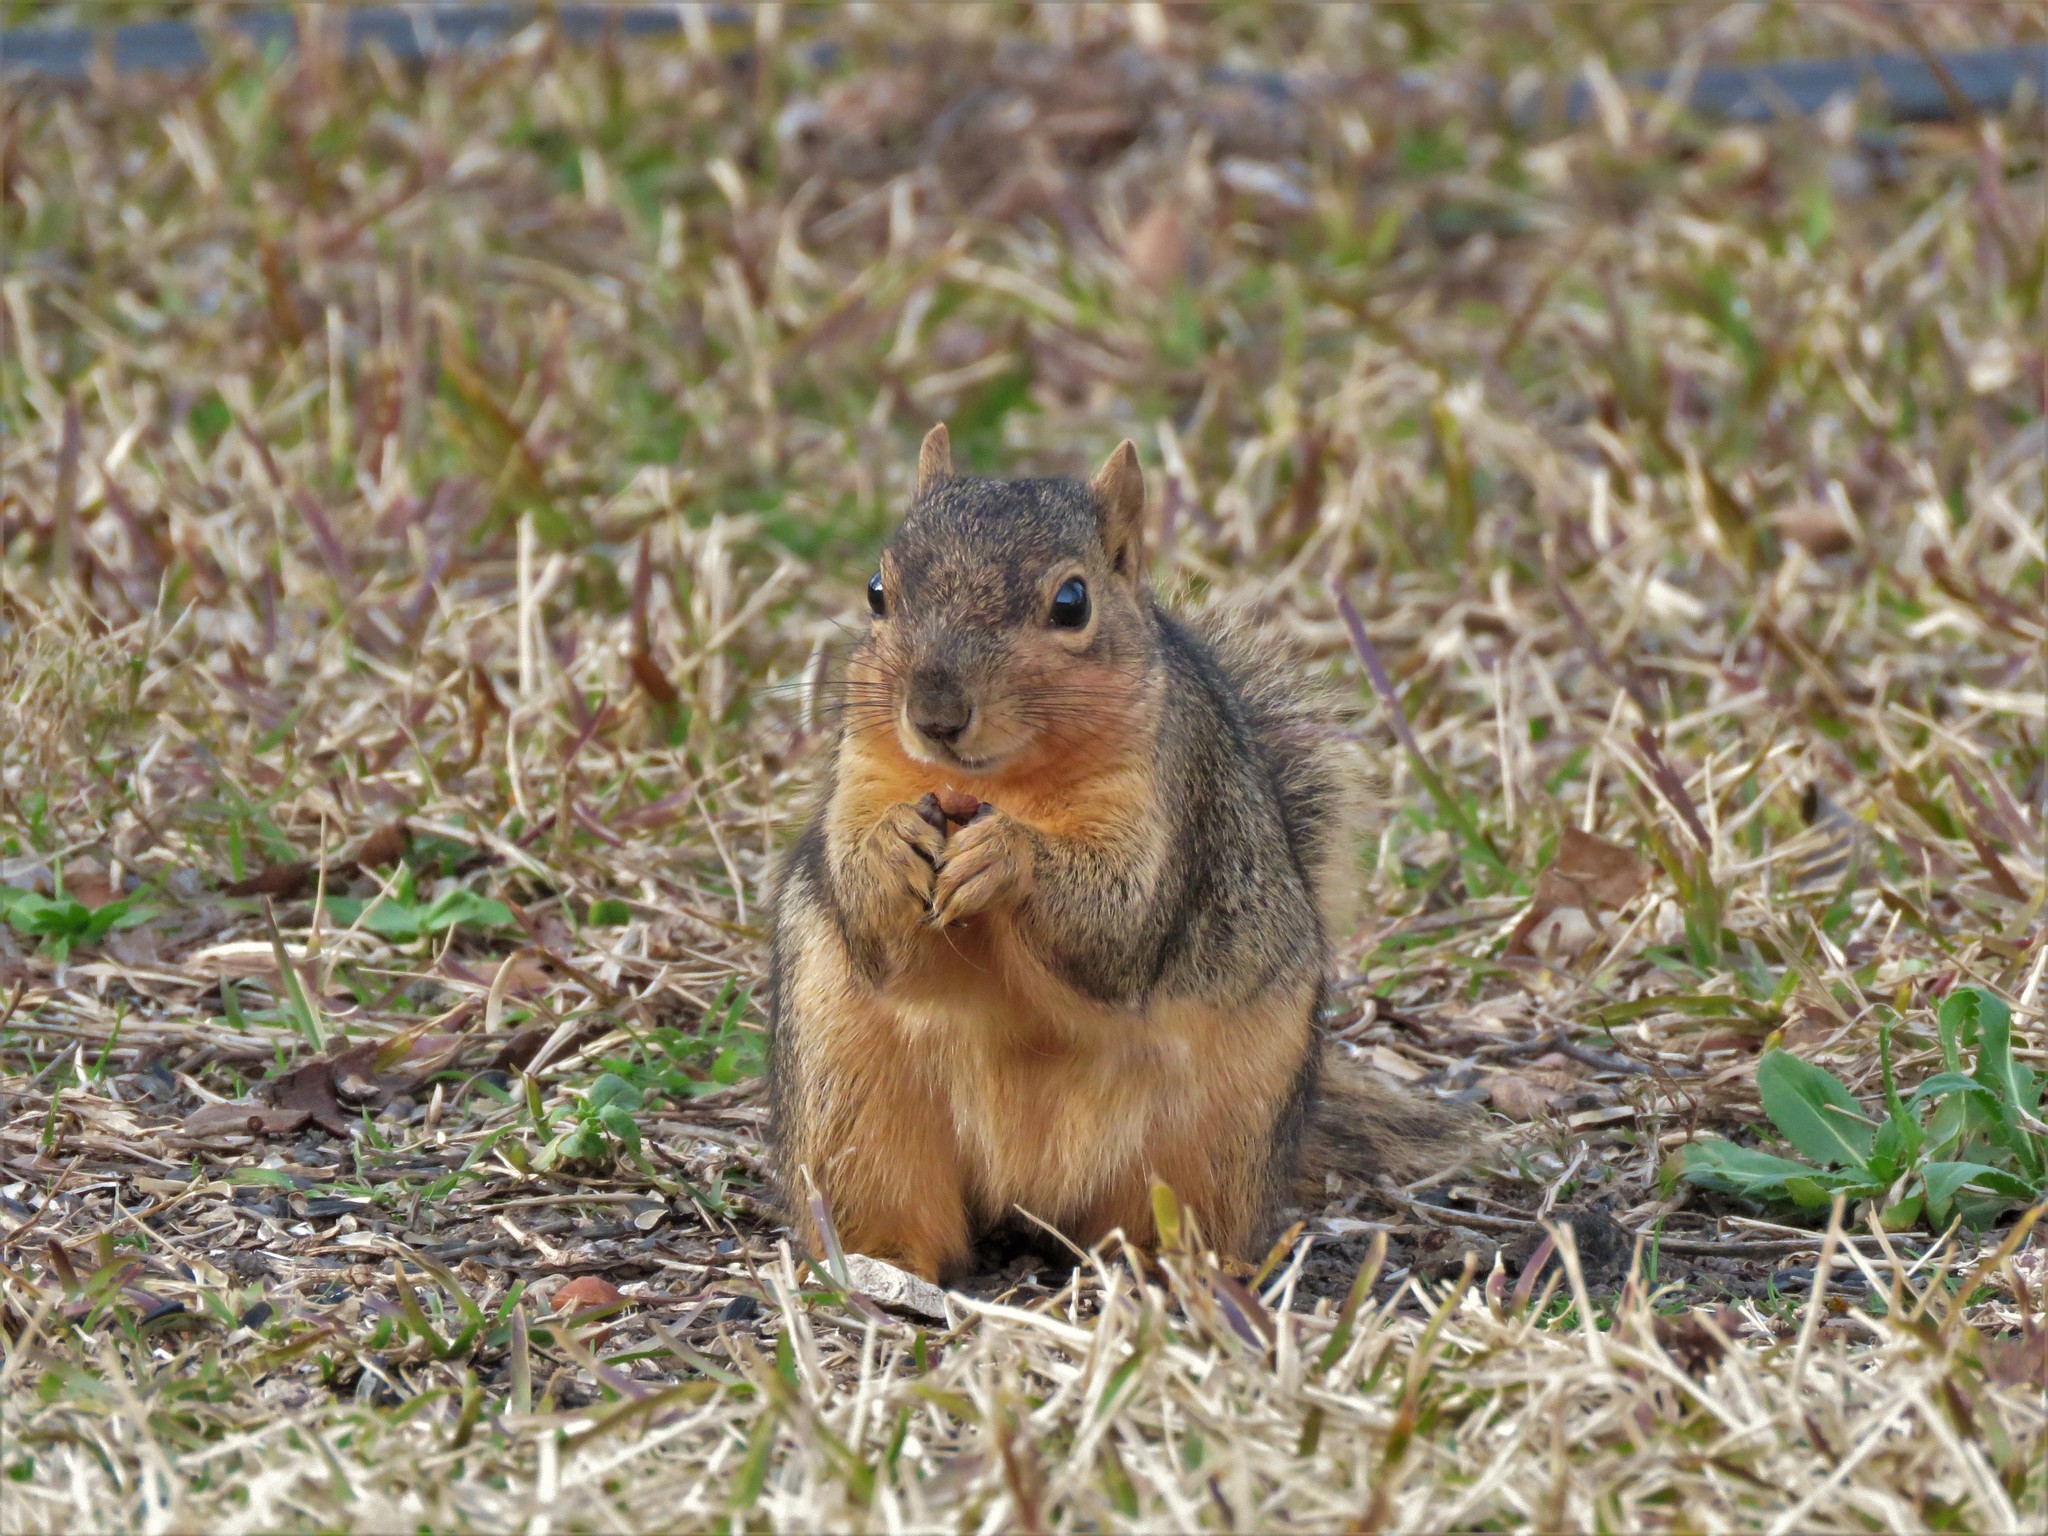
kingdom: Animalia
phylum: Chordata
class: Mammalia
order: Rodentia
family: Sciuridae
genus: Sciurus
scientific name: Sciurus niger
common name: Fox squirrel
